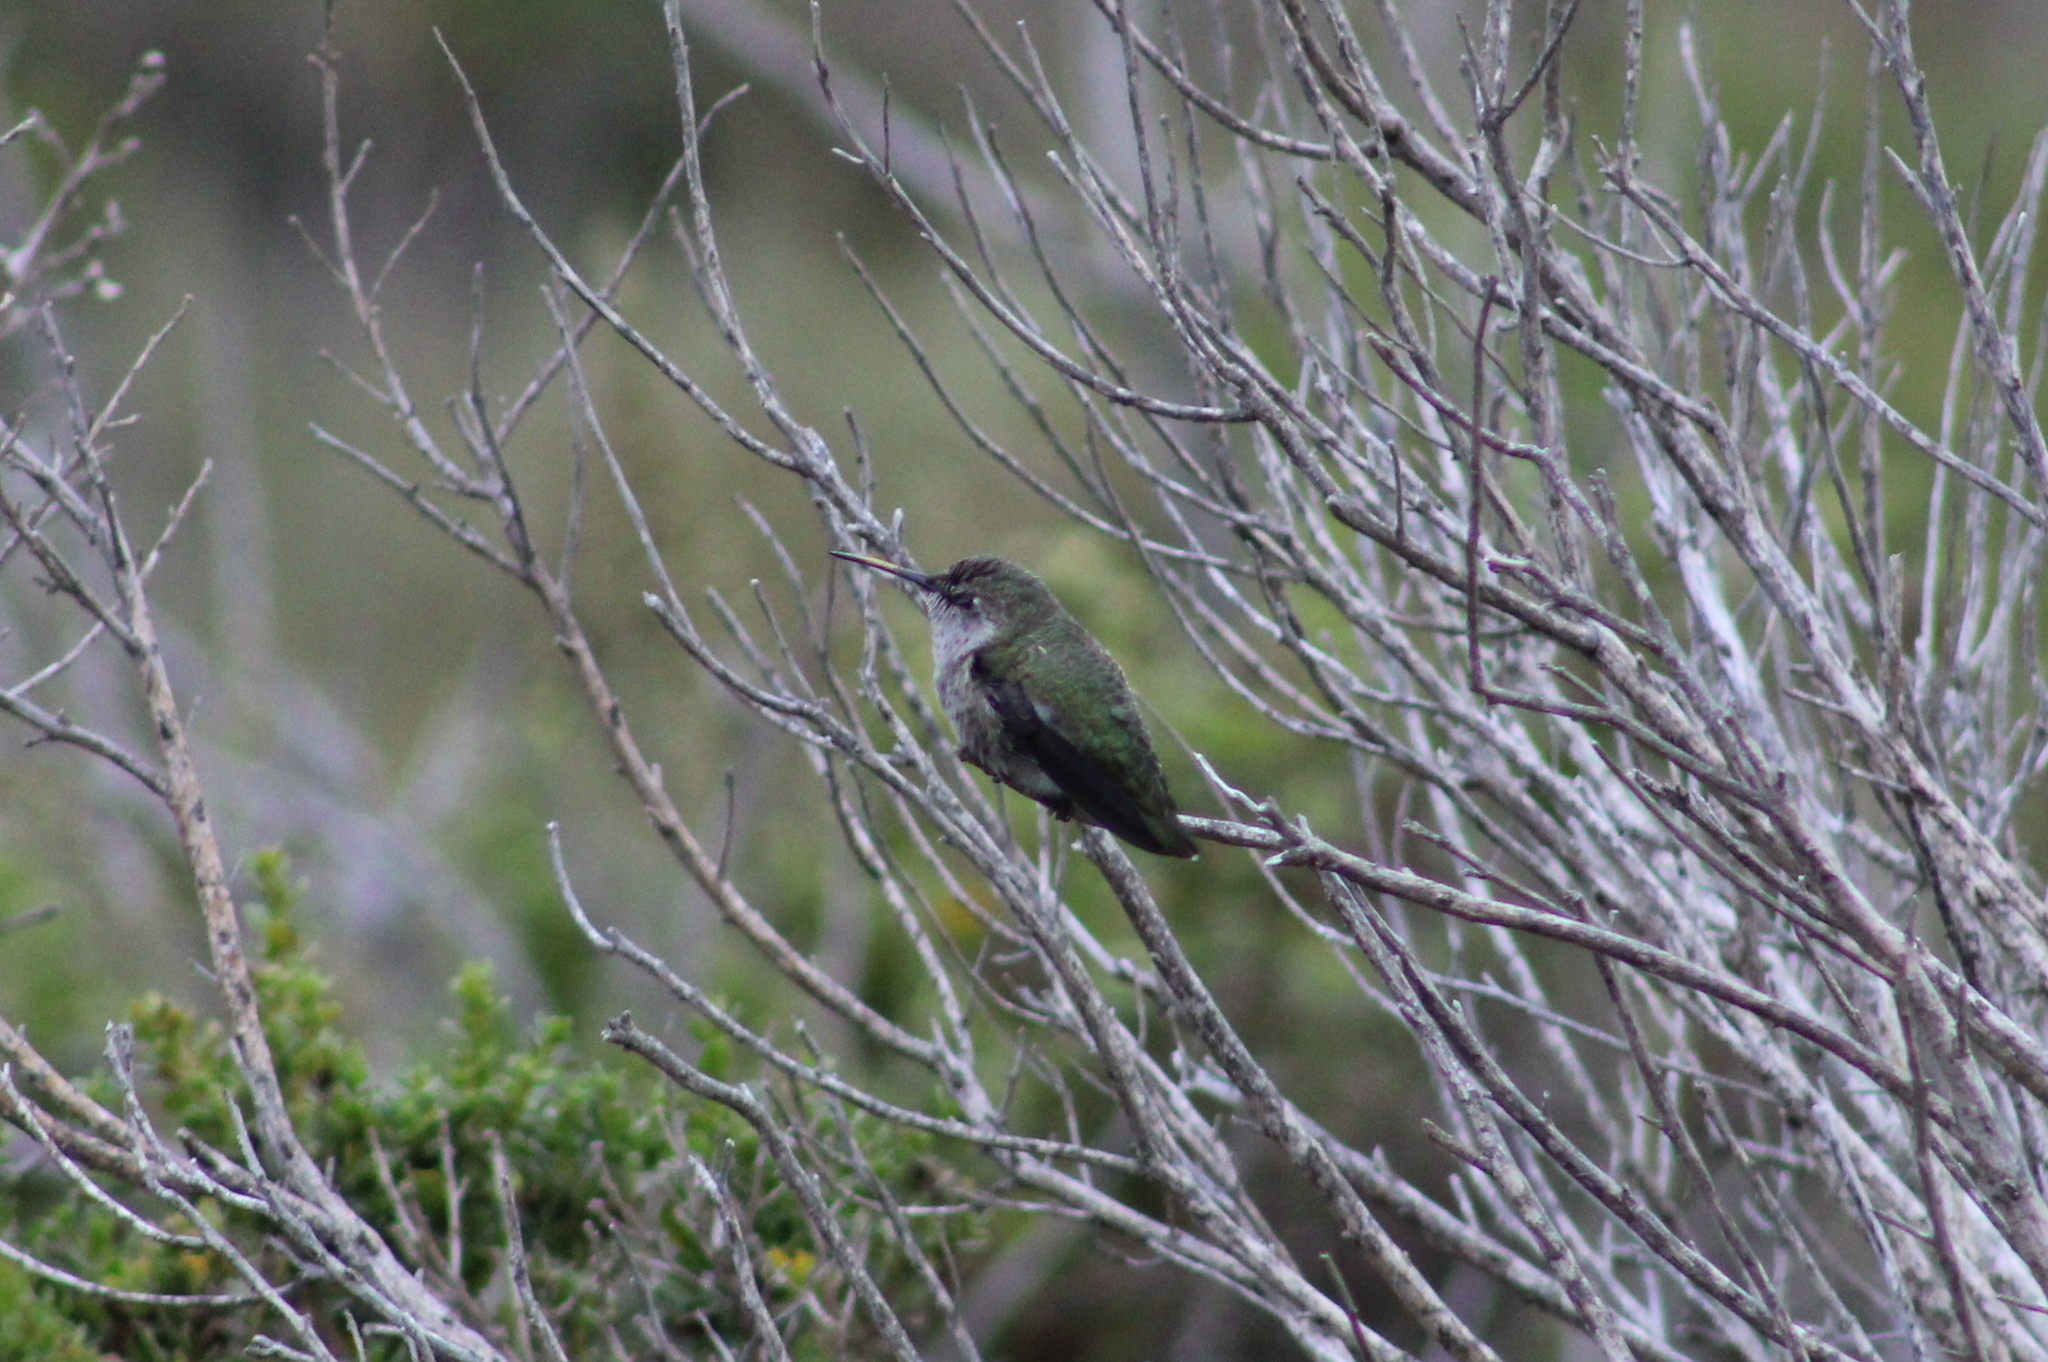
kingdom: Animalia
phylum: Chordata
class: Aves
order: Apodiformes
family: Trochilidae
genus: Calypte
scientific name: Calypte anna
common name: Anna's hummingbird
